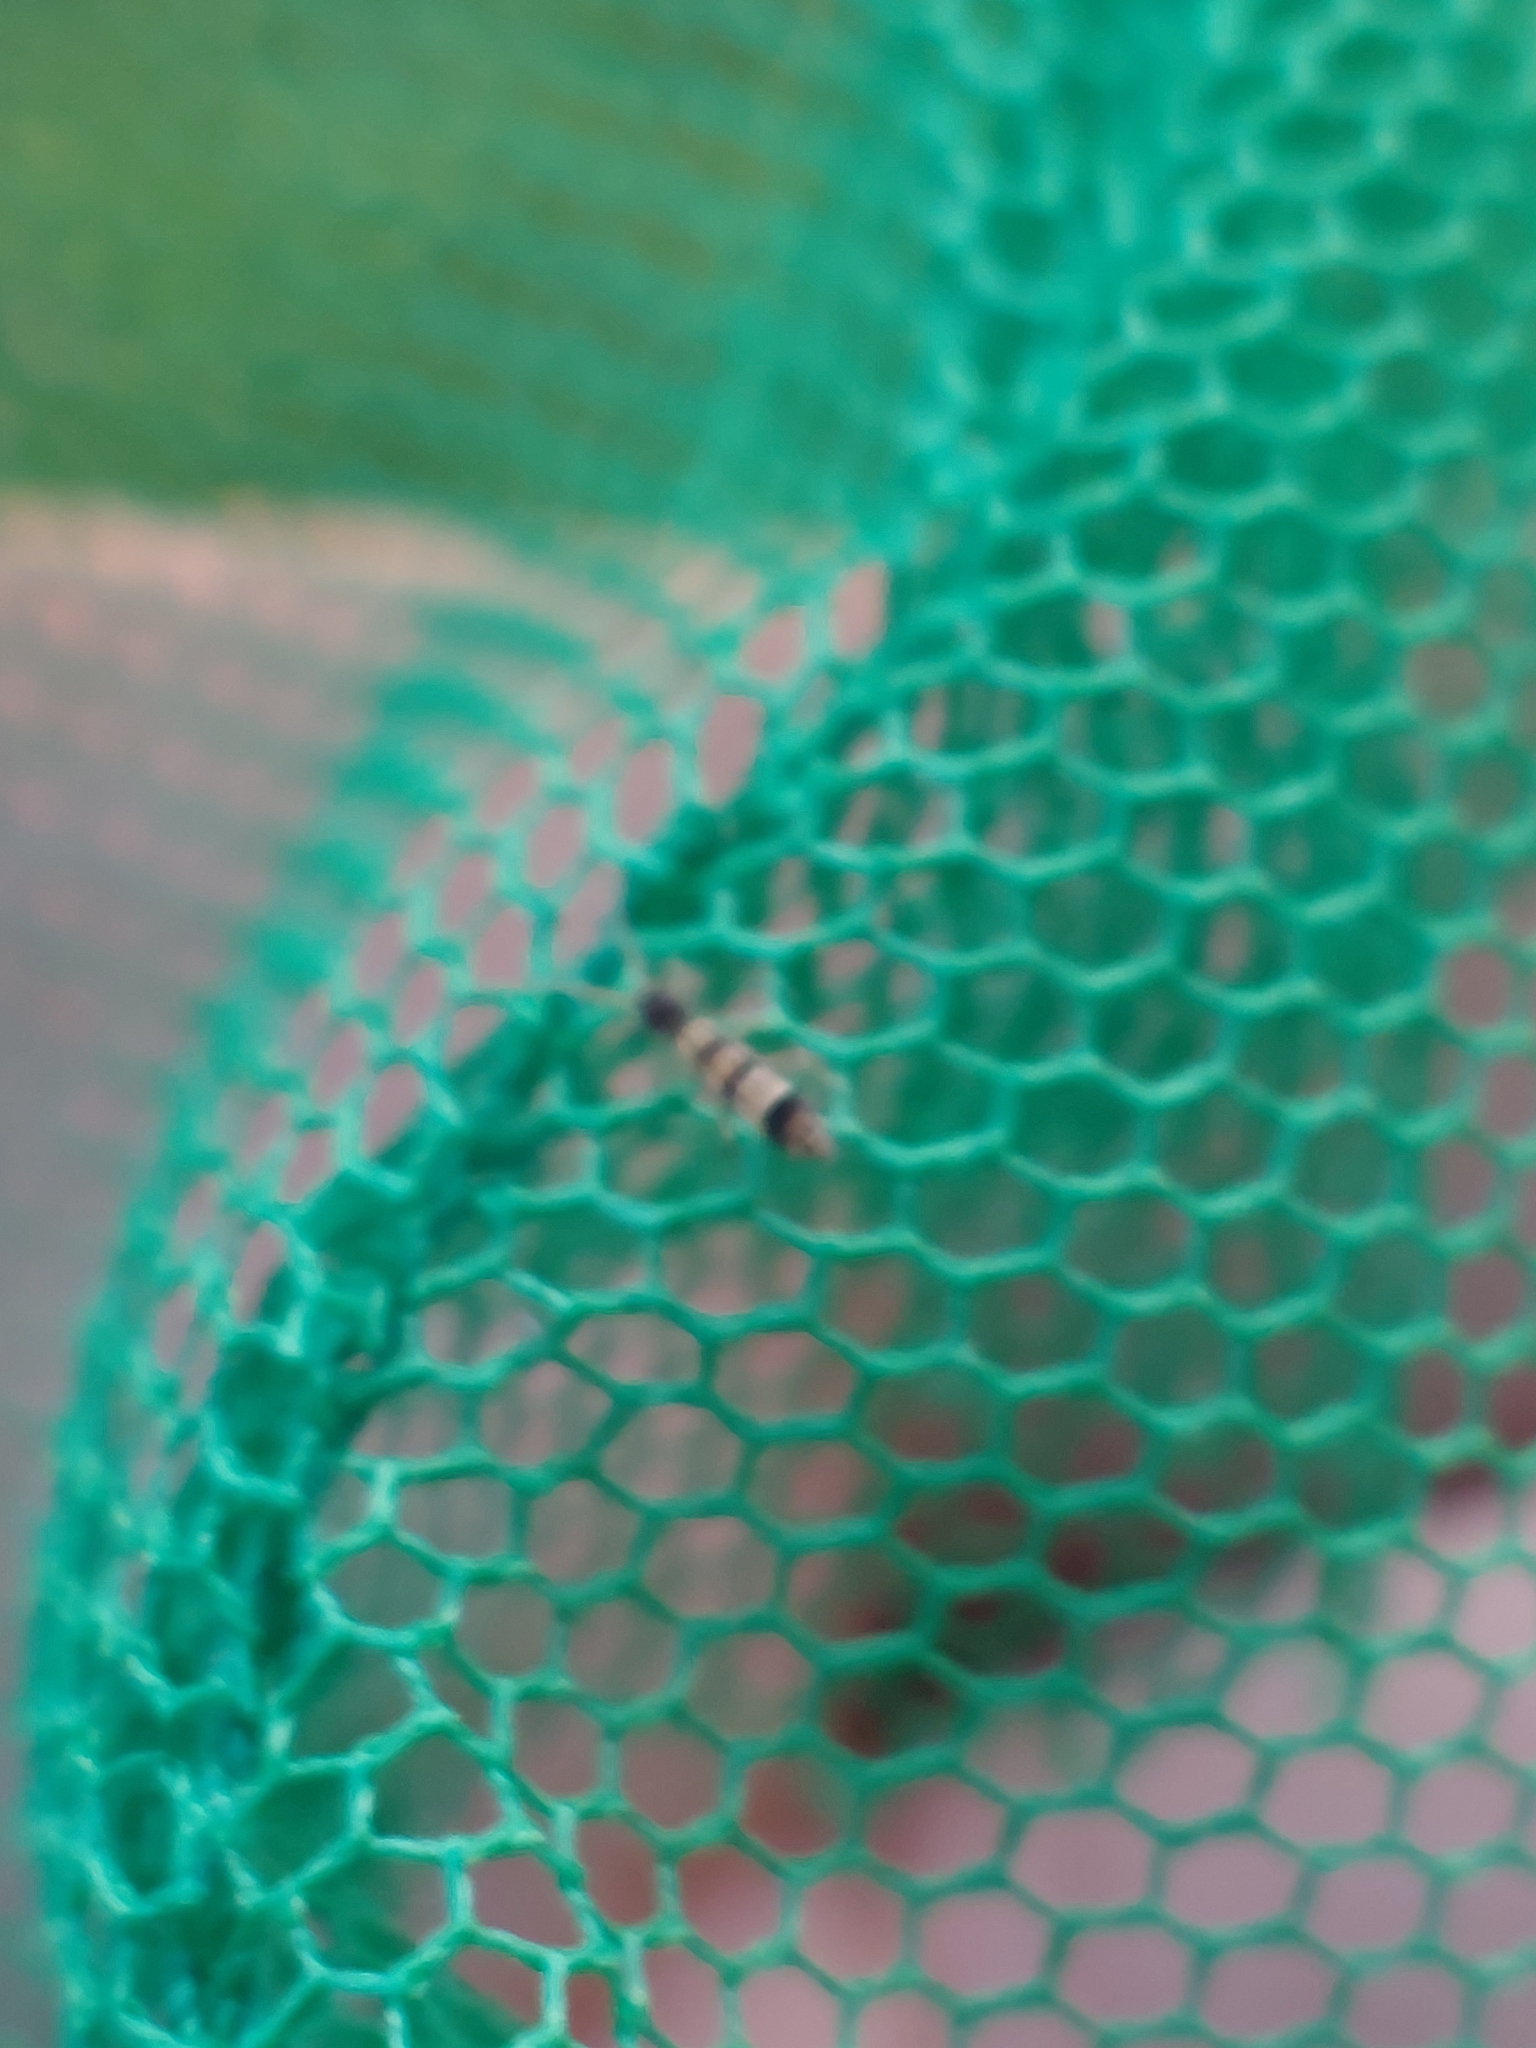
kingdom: Animalia
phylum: Arthropoda
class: Collembola
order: Entomobryomorpha
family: Orchesellidae
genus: Orchesella
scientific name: Orchesella spectabilis
